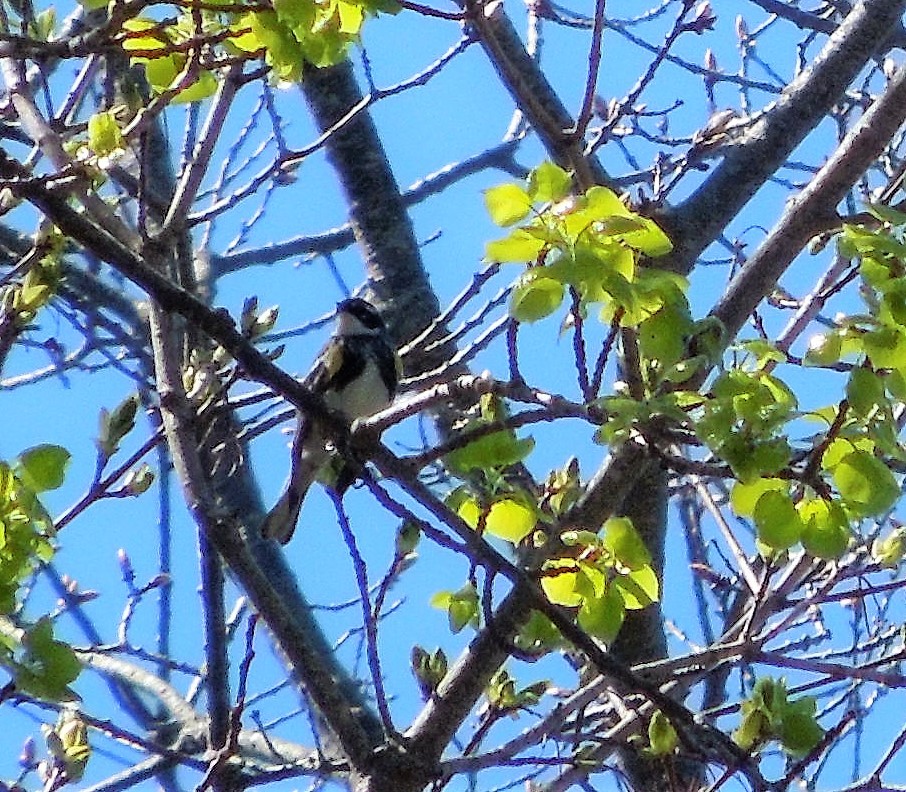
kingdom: Animalia
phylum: Chordata
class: Aves
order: Passeriformes
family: Parulidae
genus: Setophaga
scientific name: Setophaga coronata
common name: Myrtle warbler
